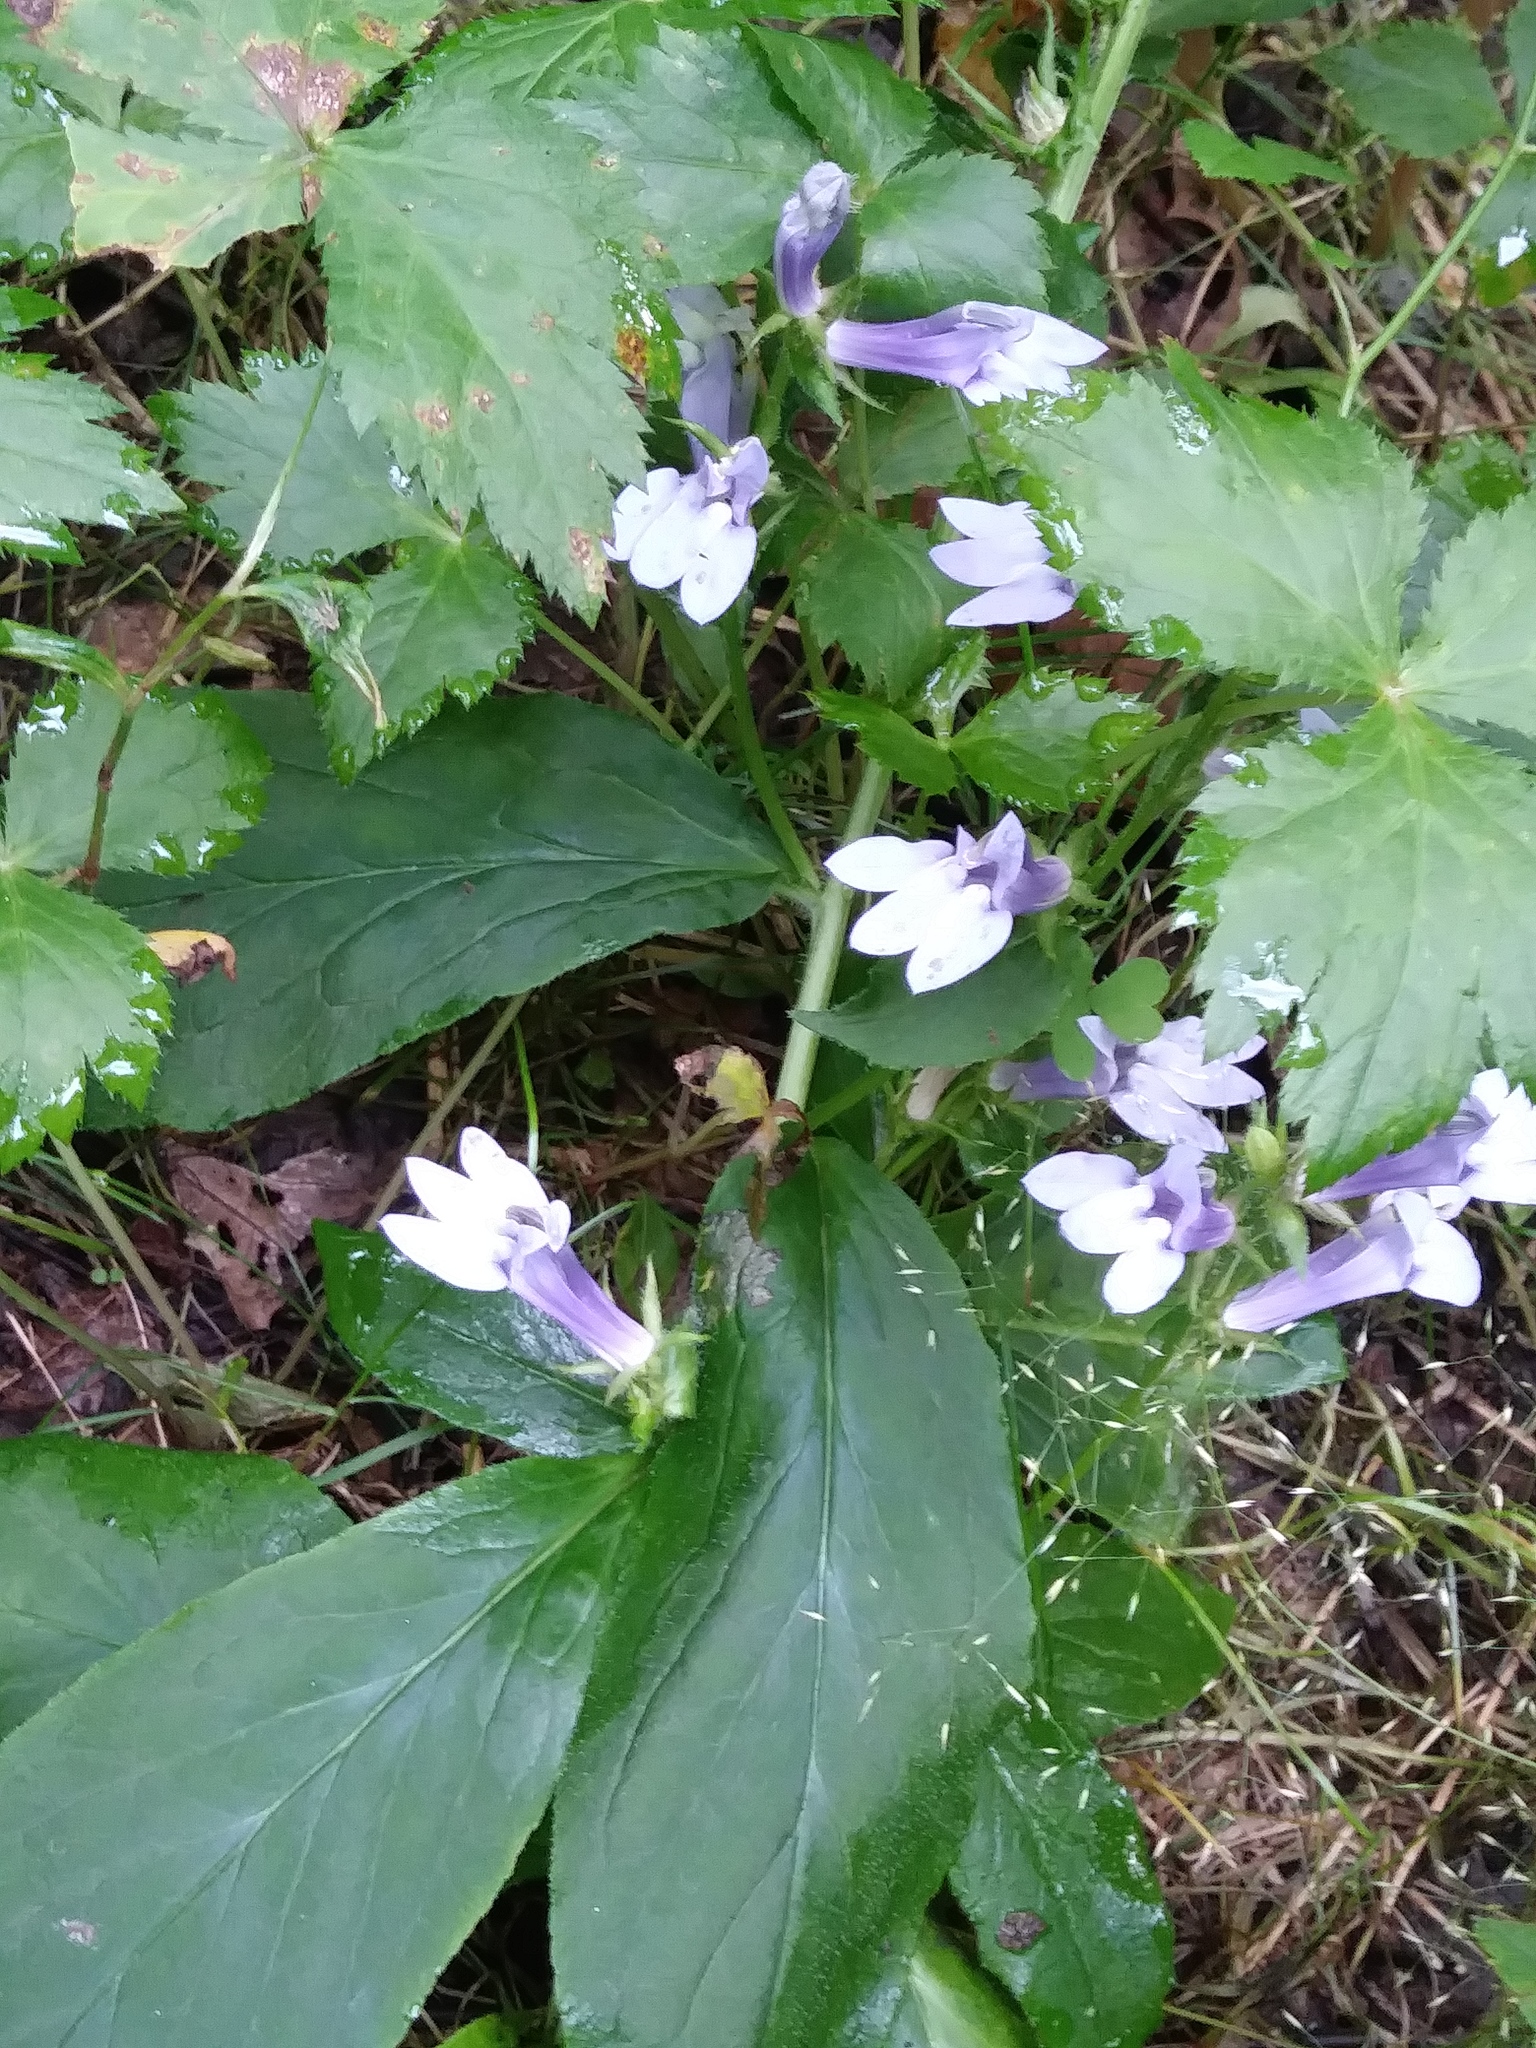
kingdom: Plantae
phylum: Tracheophyta
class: Magnoliopsida
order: Asterales
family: Campanulaceae
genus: Lobelia
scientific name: Lobelia siphilitica
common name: Great lobelia
